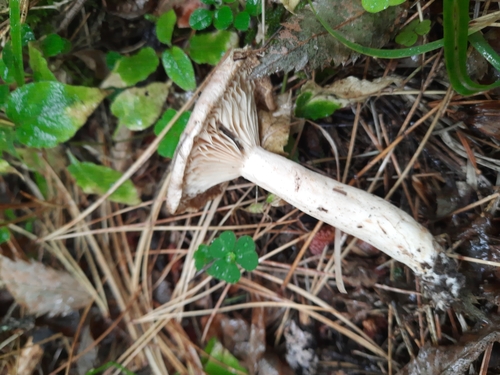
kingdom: Fungi
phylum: Basidiomycota
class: Agaricomycetes
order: Russulales
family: Russulaceae
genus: Lactarius
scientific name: Lactarius
